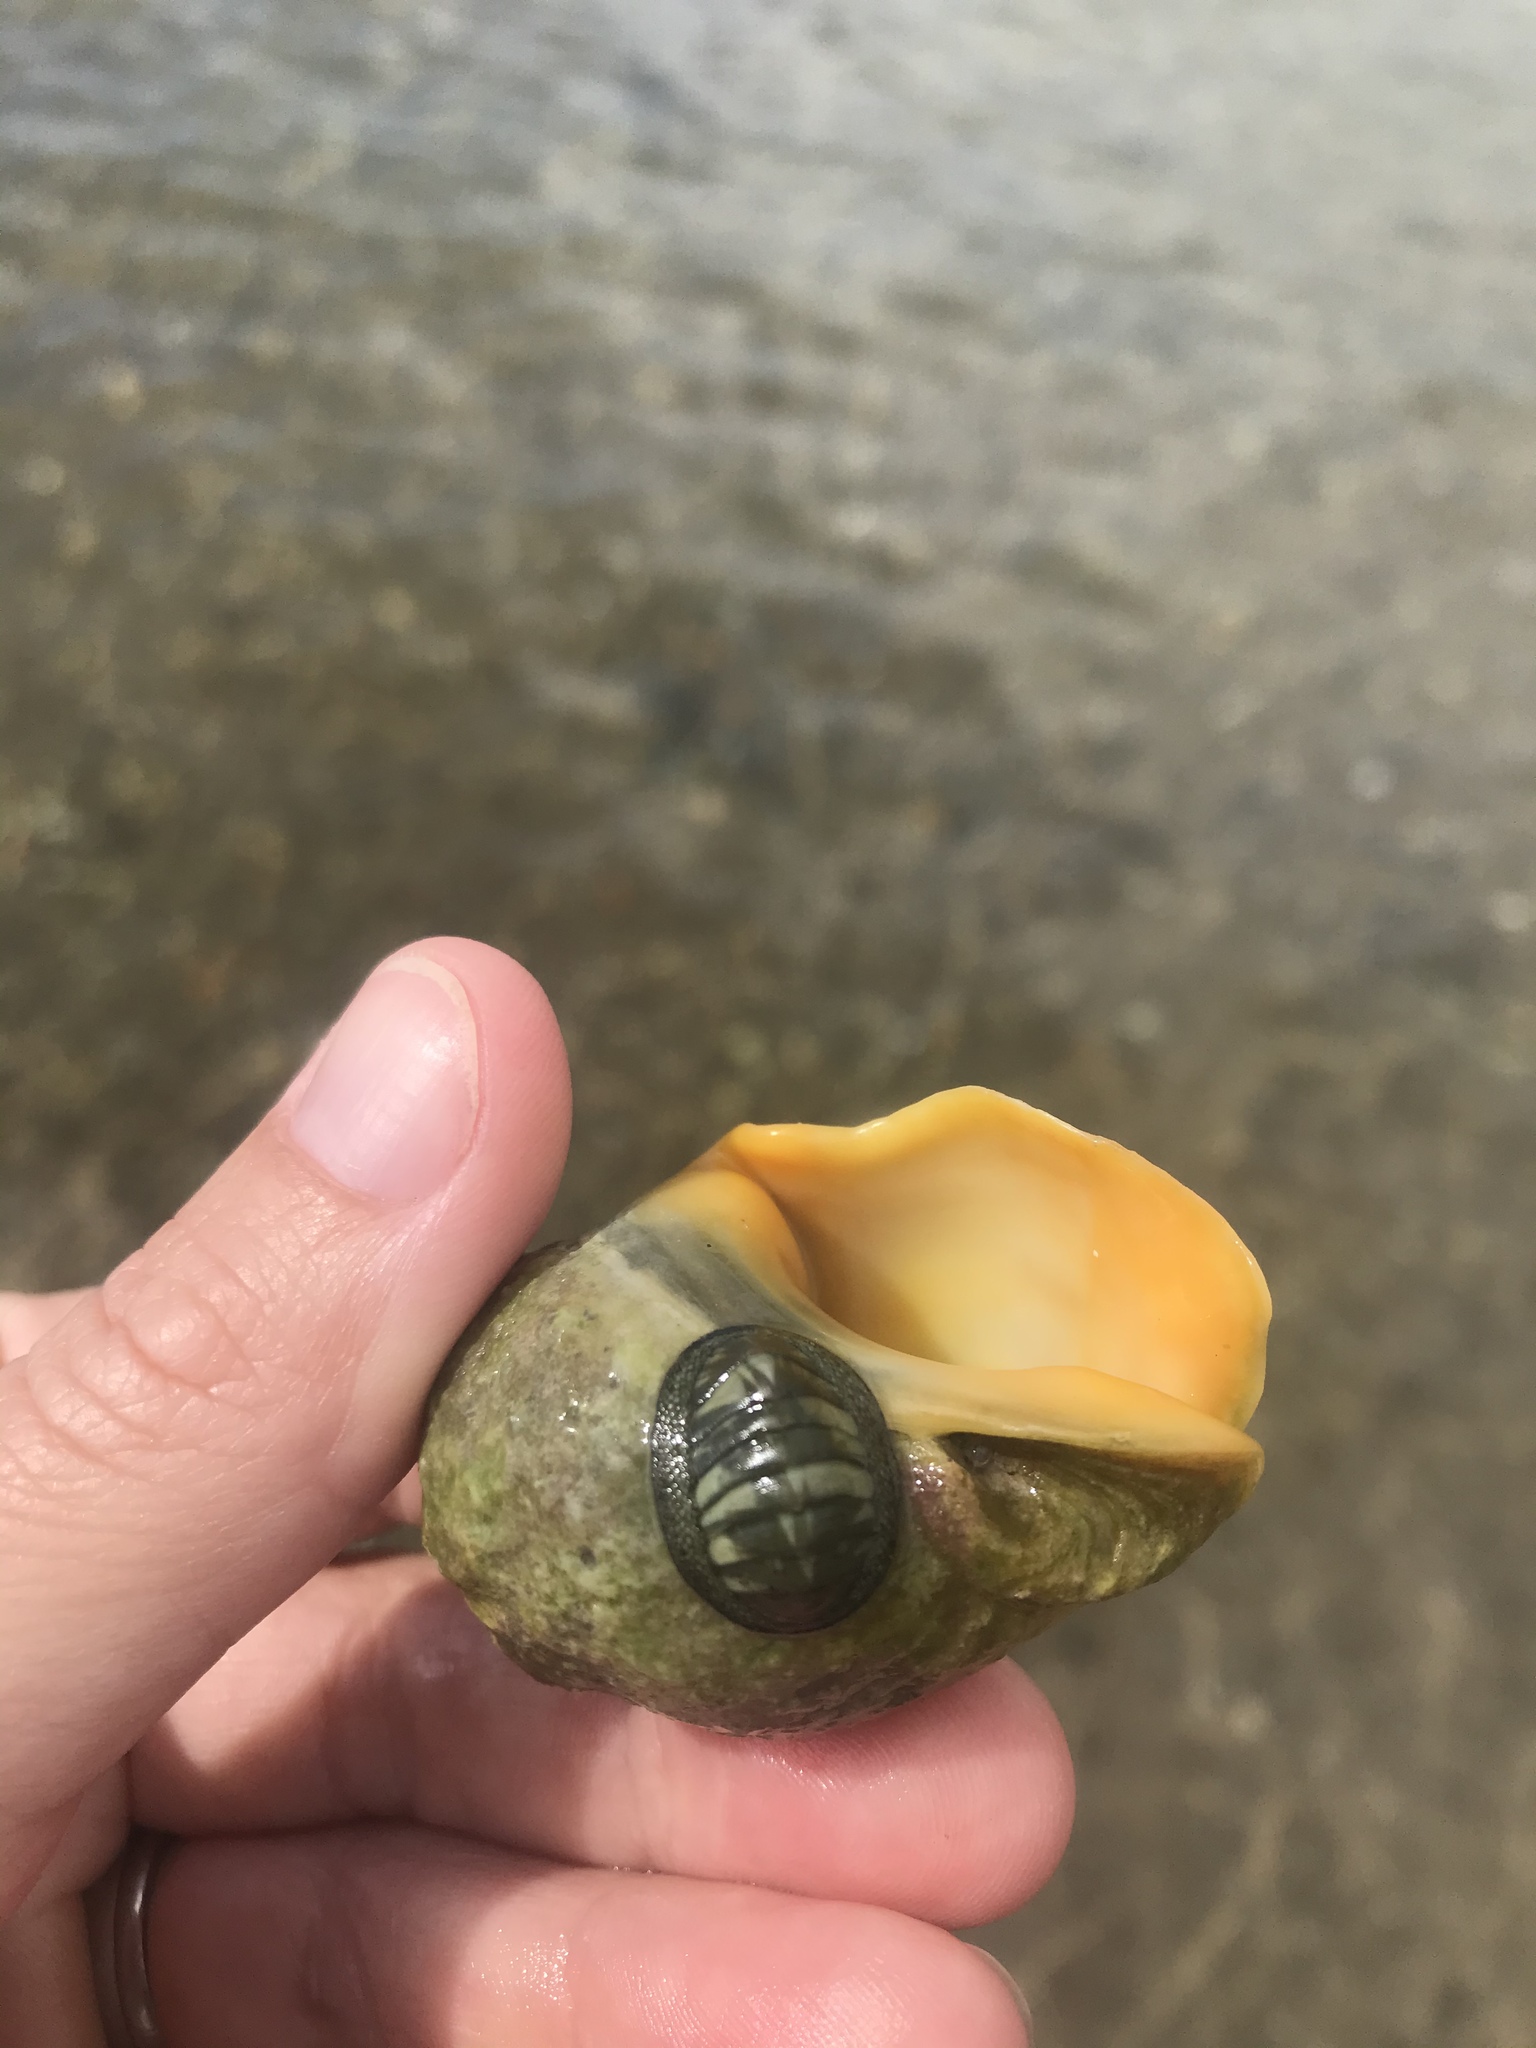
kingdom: Animalia
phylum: Mollusca
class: Polyplacophora
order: Chitonida
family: Chitonidae
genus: Chiton
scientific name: Chiton glaucus
